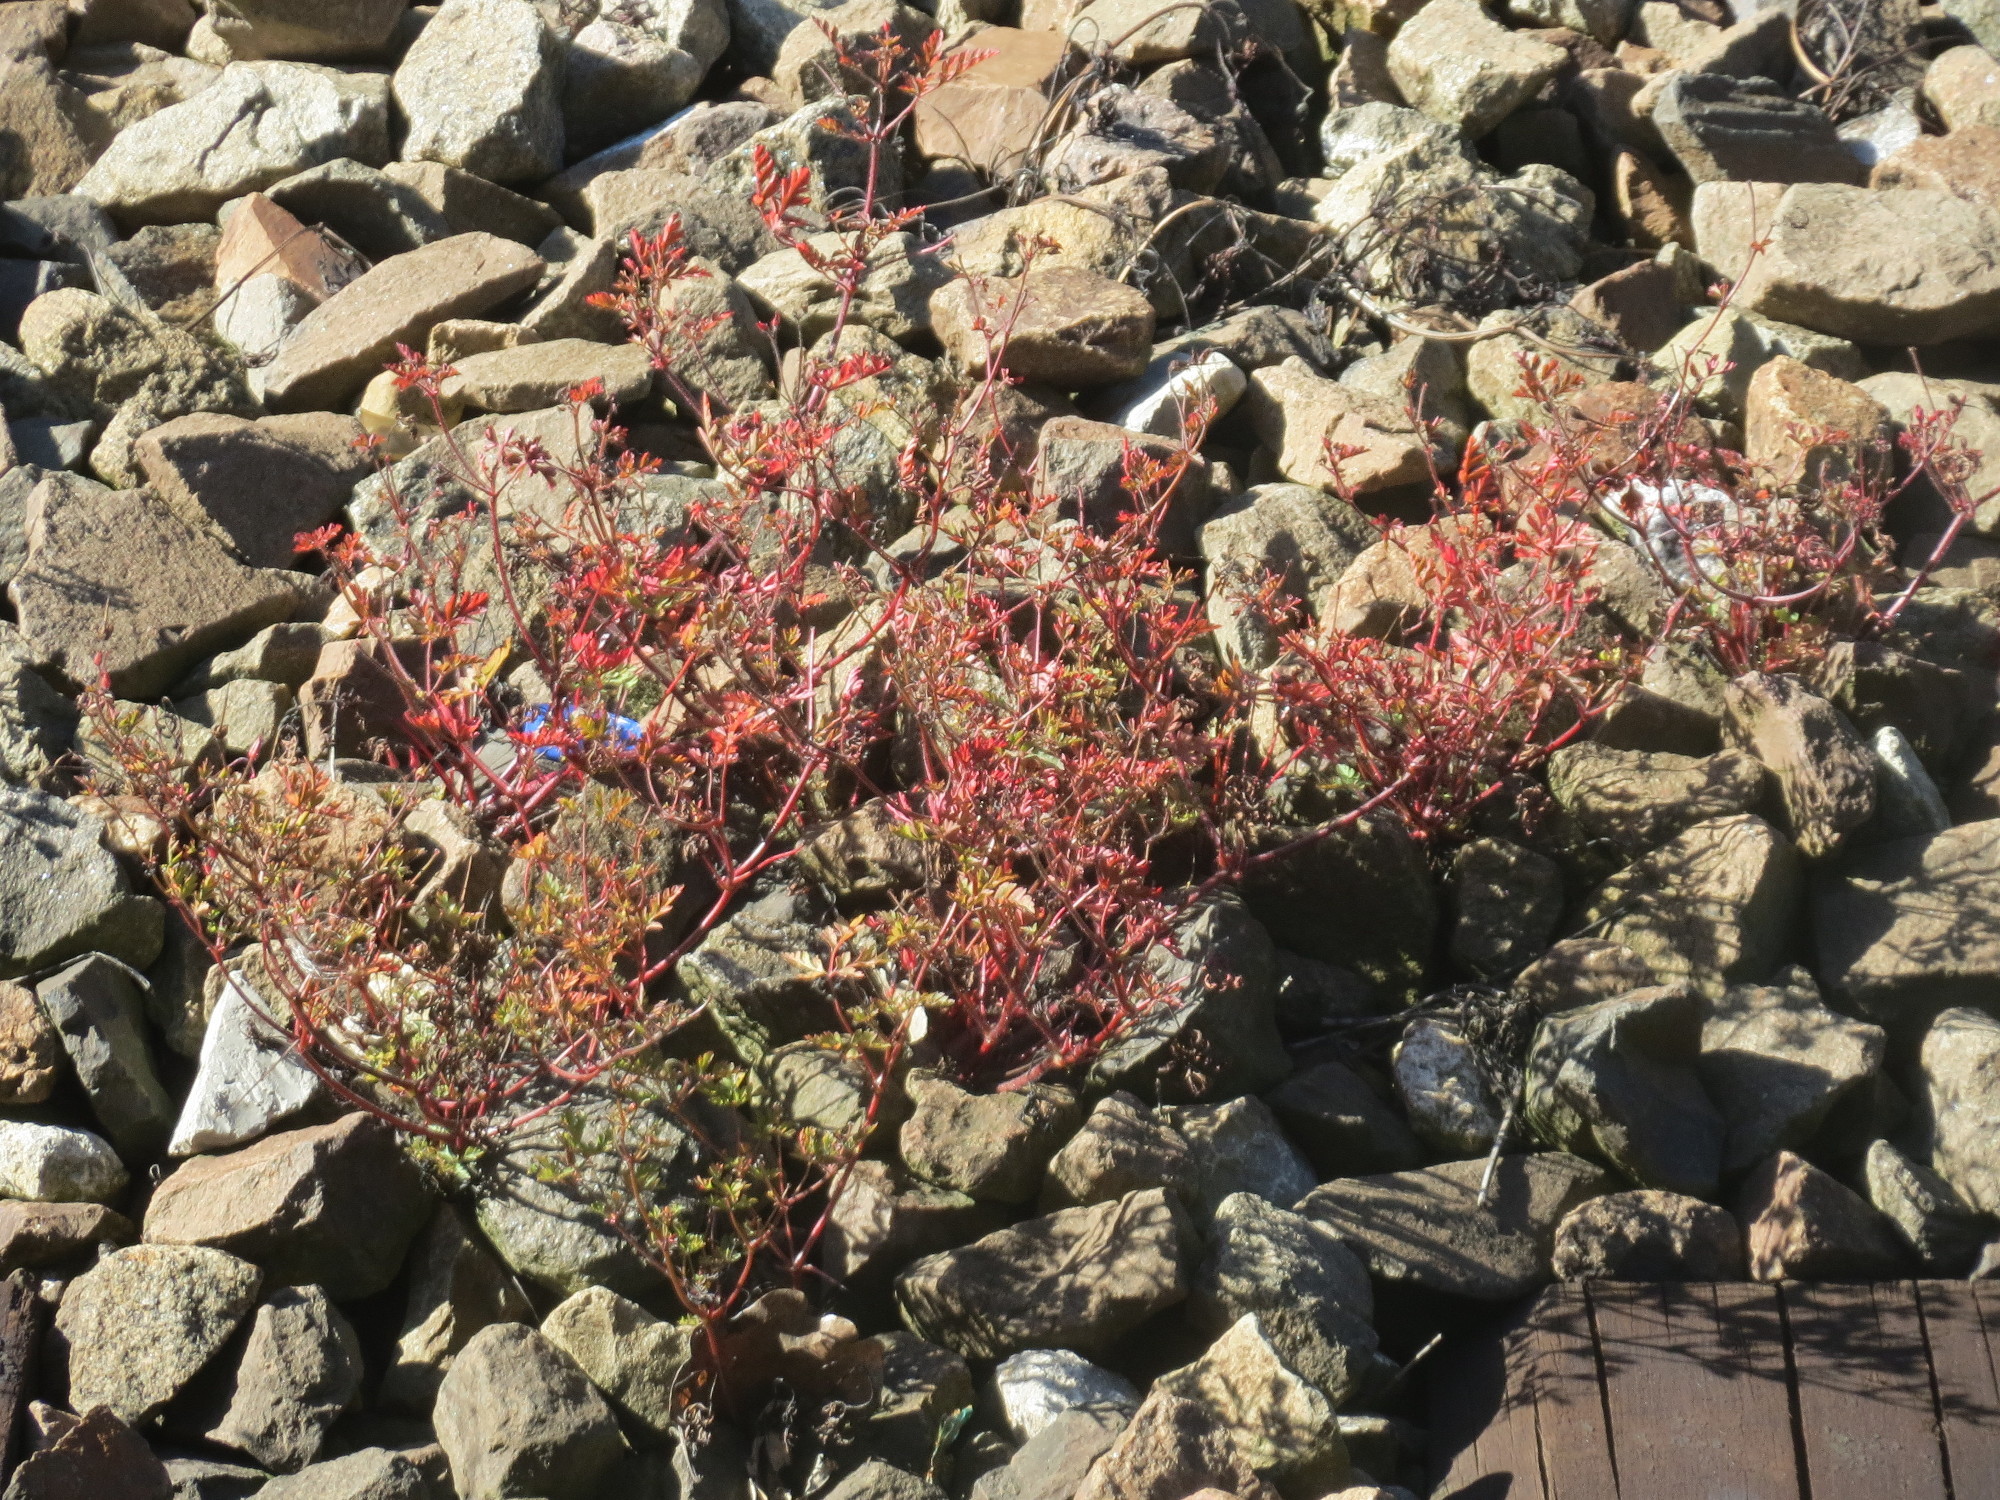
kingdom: Plantae
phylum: Tracheophyta
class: Magnoliopsida
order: Geraniales
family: Geraniaceae
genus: Geranium
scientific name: Geranium robertianum
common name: Herb-robert
